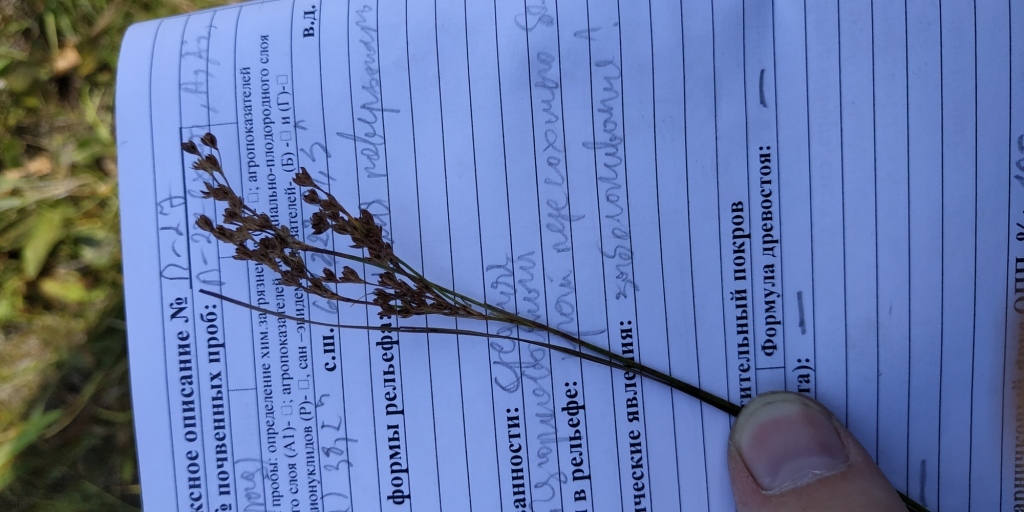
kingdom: Plantae
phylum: Tracheophyta
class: Liliopsida
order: Poales
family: Juncaceae
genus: Juncus
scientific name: Juncus compressus
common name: Round-fruited rush
